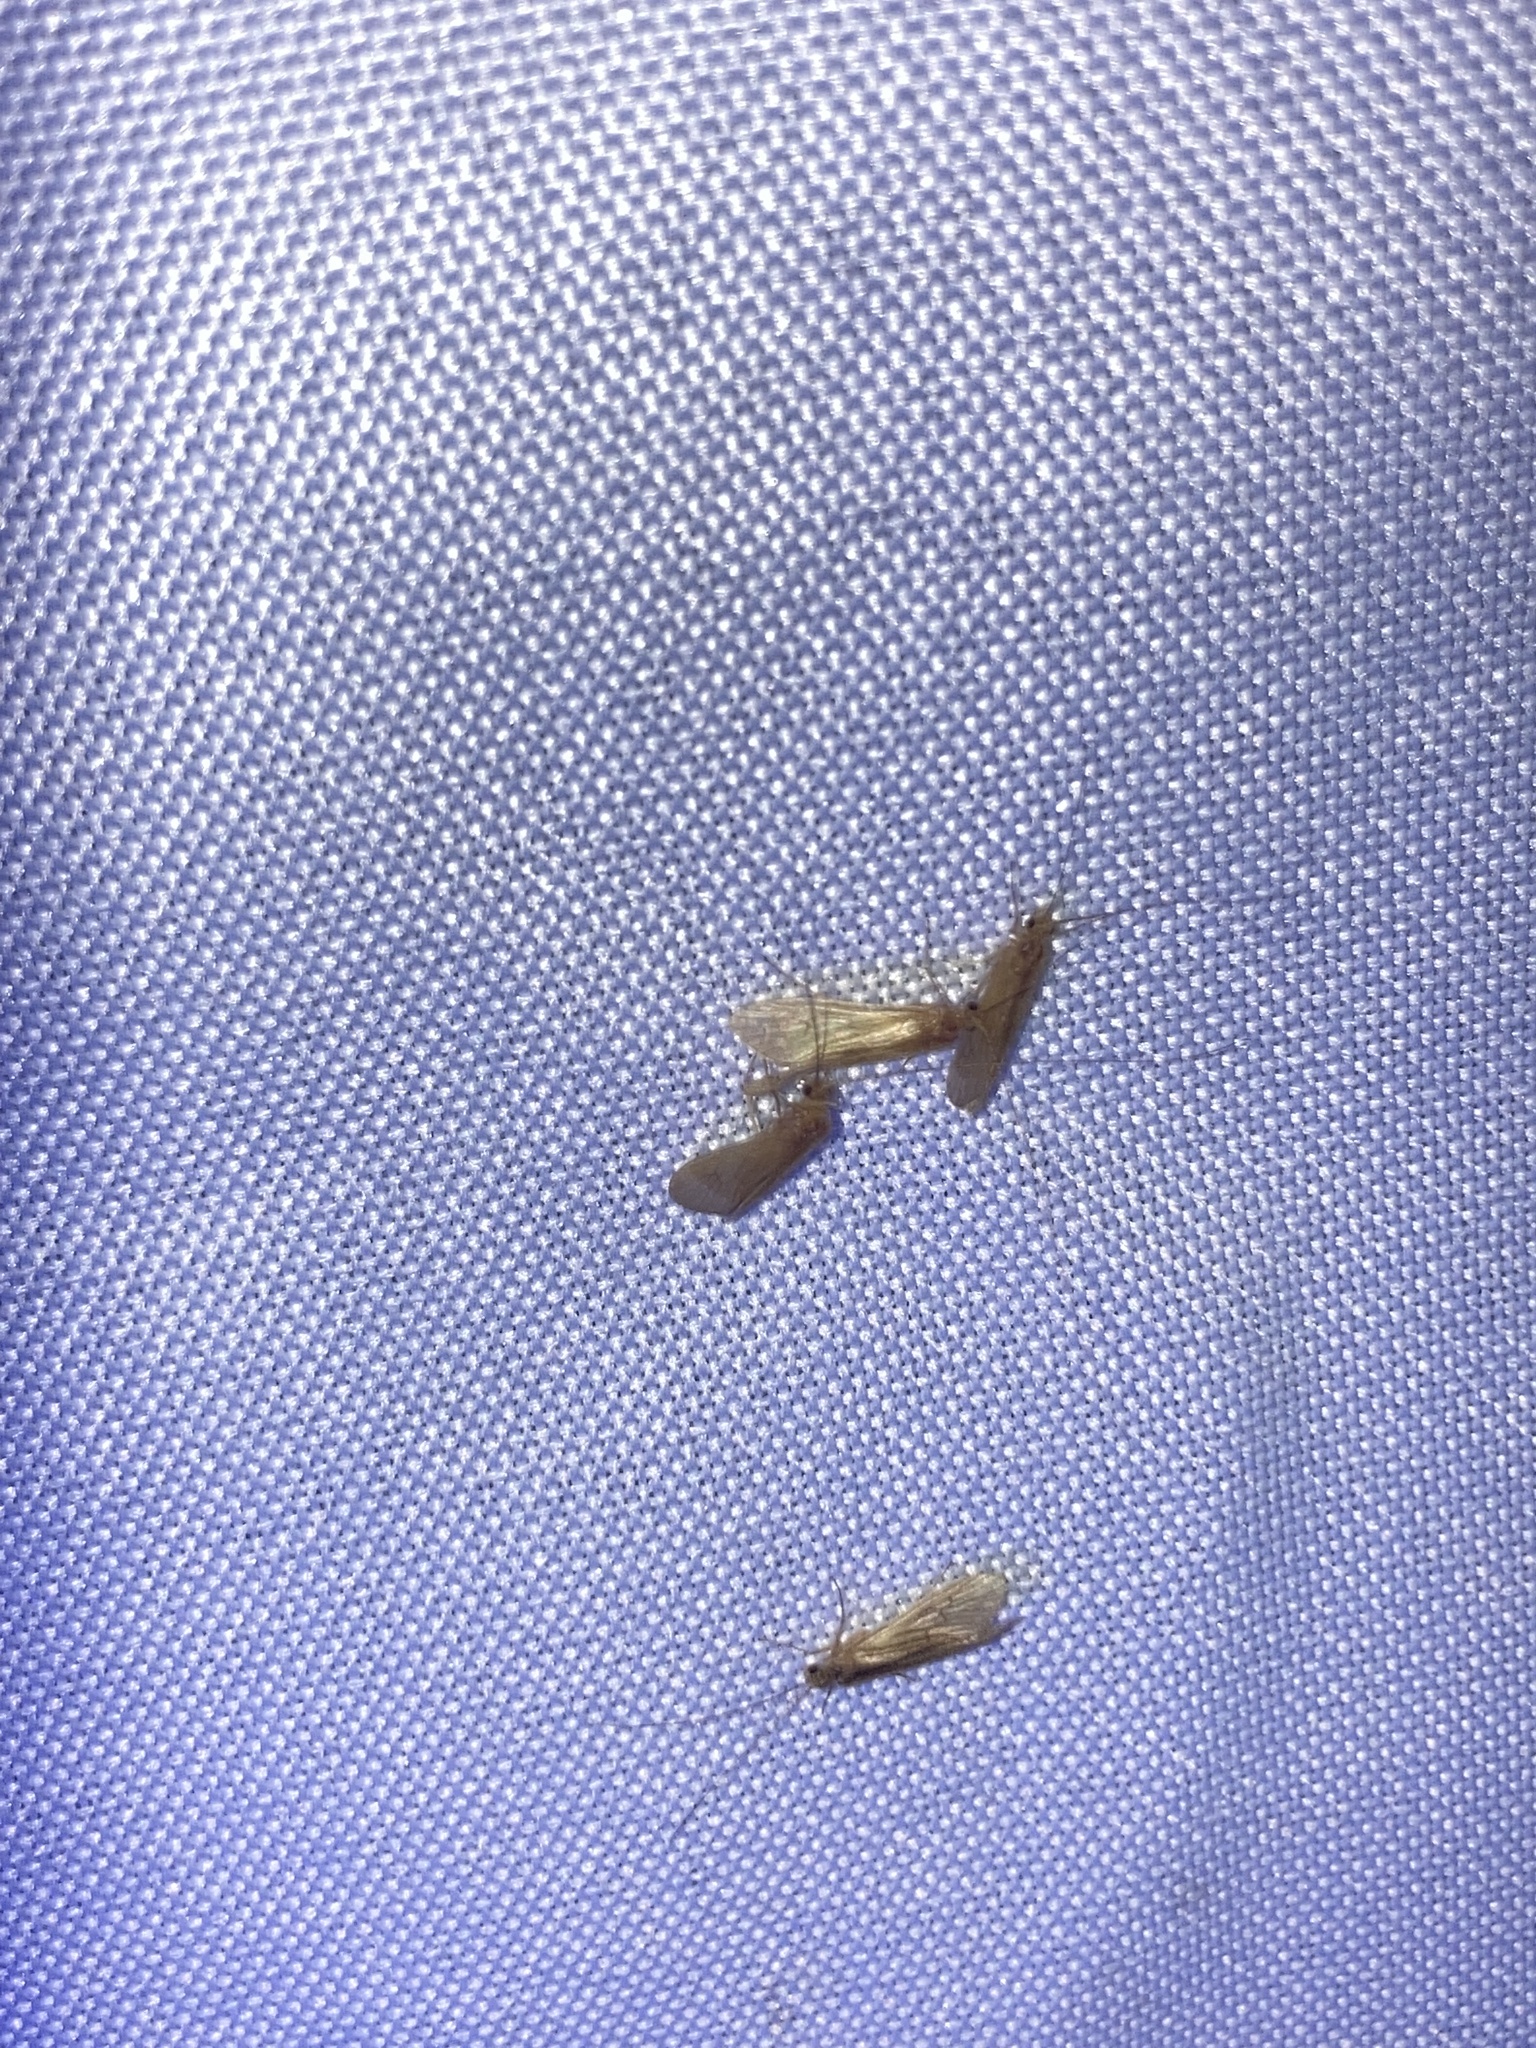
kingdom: Animalia
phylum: Arthropoda
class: Insecta
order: Trichoptera
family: Hydropsychidae
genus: Potamyia
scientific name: Potamyia flava
